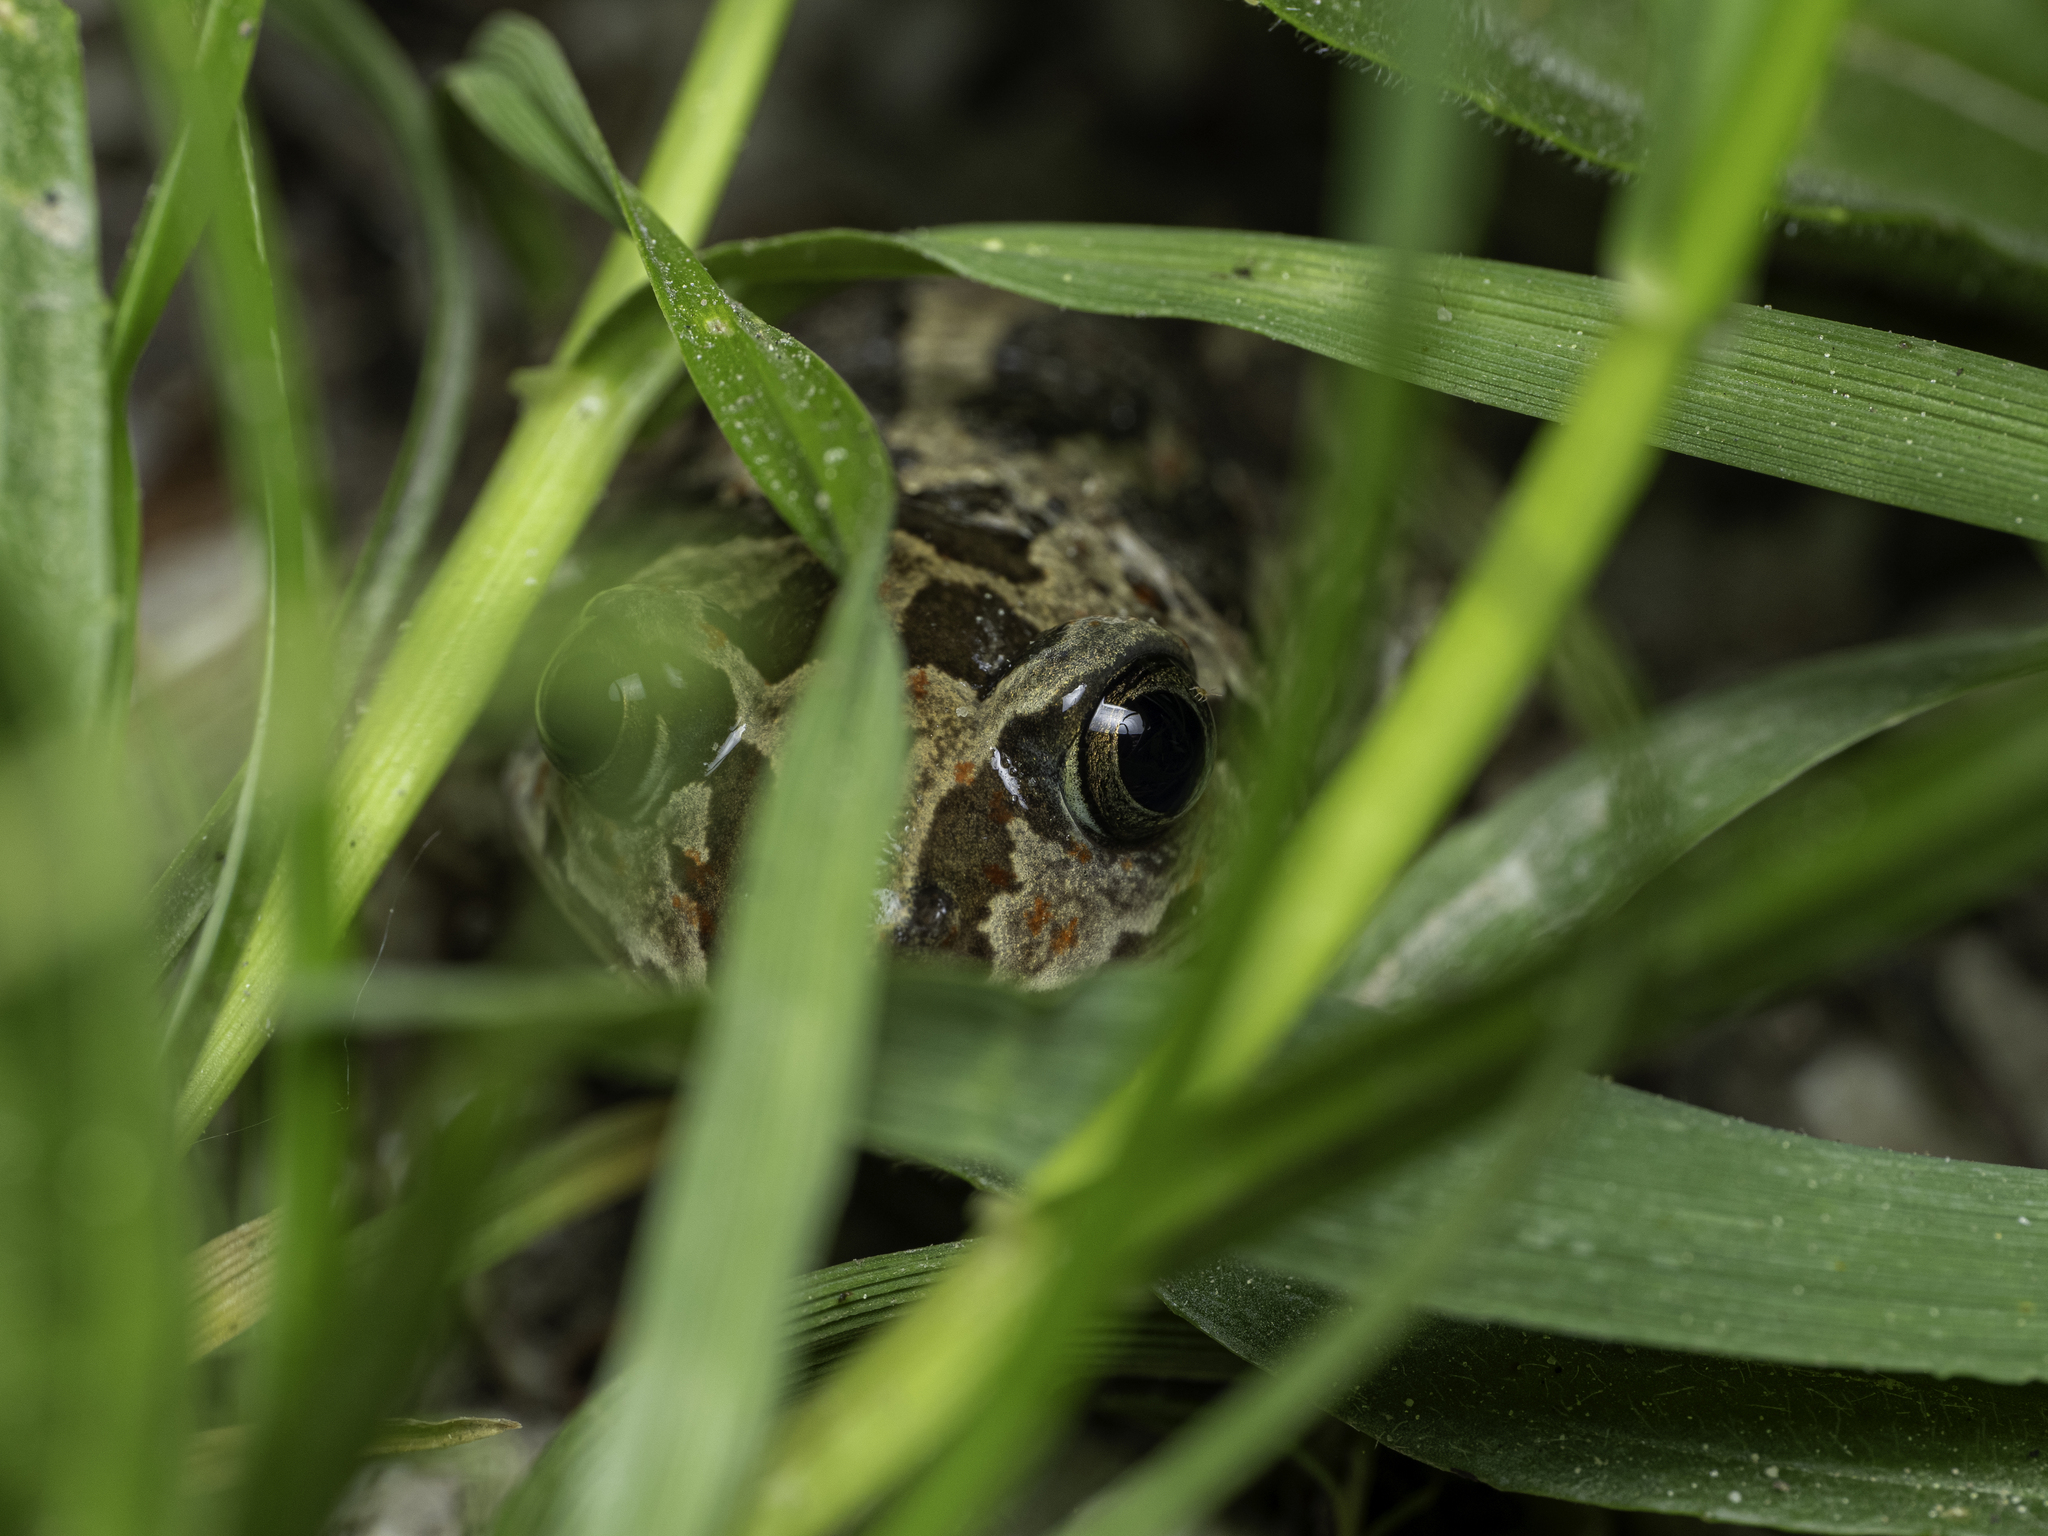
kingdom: Animalia
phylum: Chordata
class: Amphibia
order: Anura
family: Pelobatidae
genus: Pelobates
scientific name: Pelobates fuscus
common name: Common eurasian spadefoot toad
